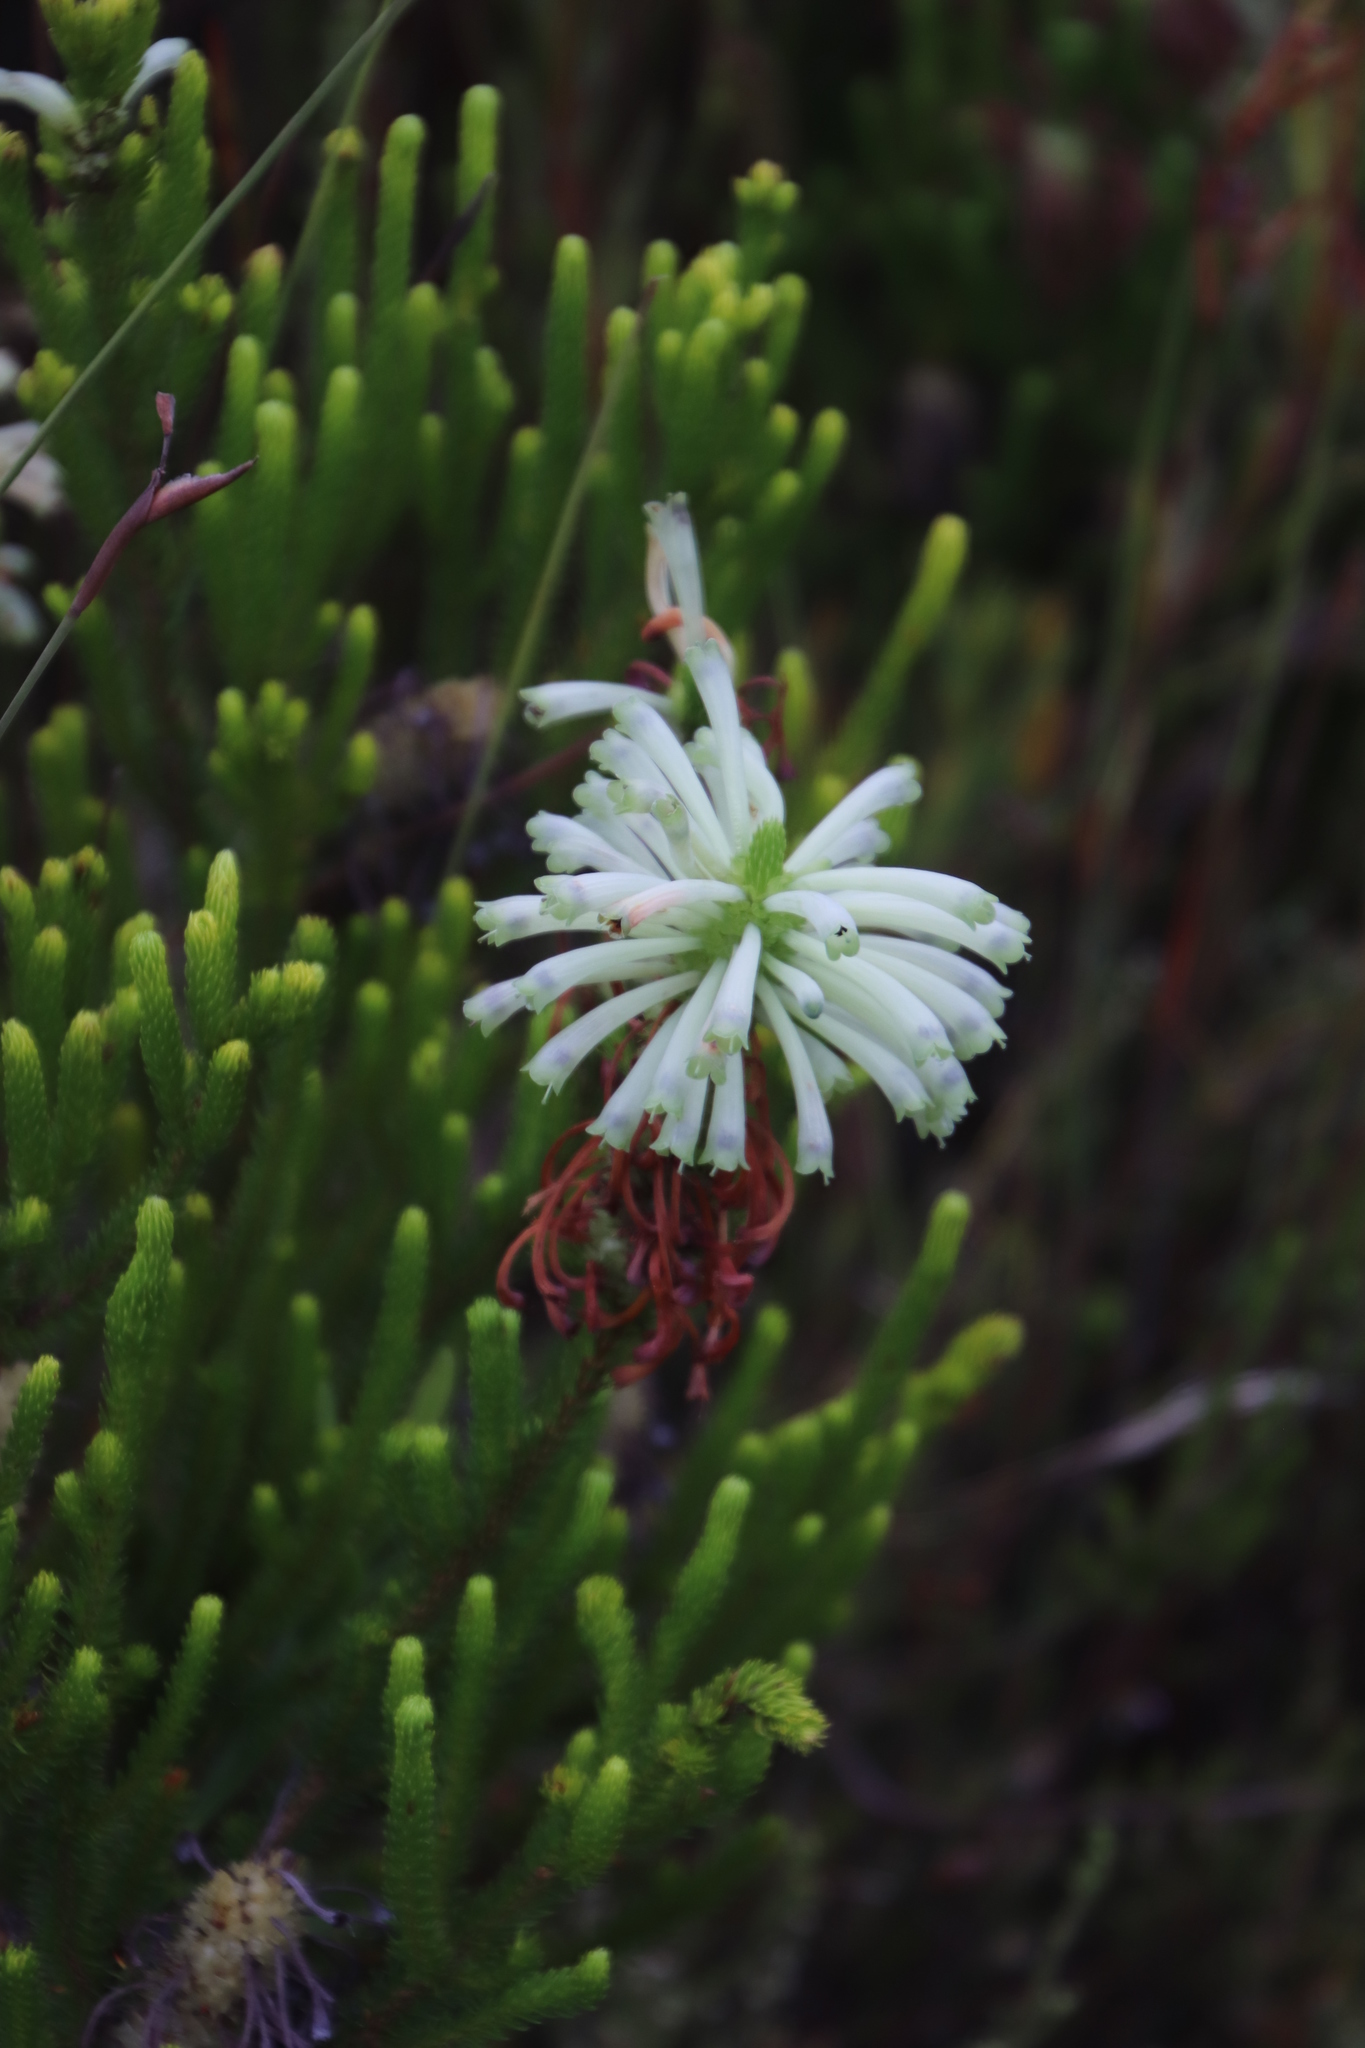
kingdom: Plantae
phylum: Tracheophyta
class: Magnoliopsida
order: Ericales
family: Ericaceae
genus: Erica
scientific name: Erica sessiliflora
